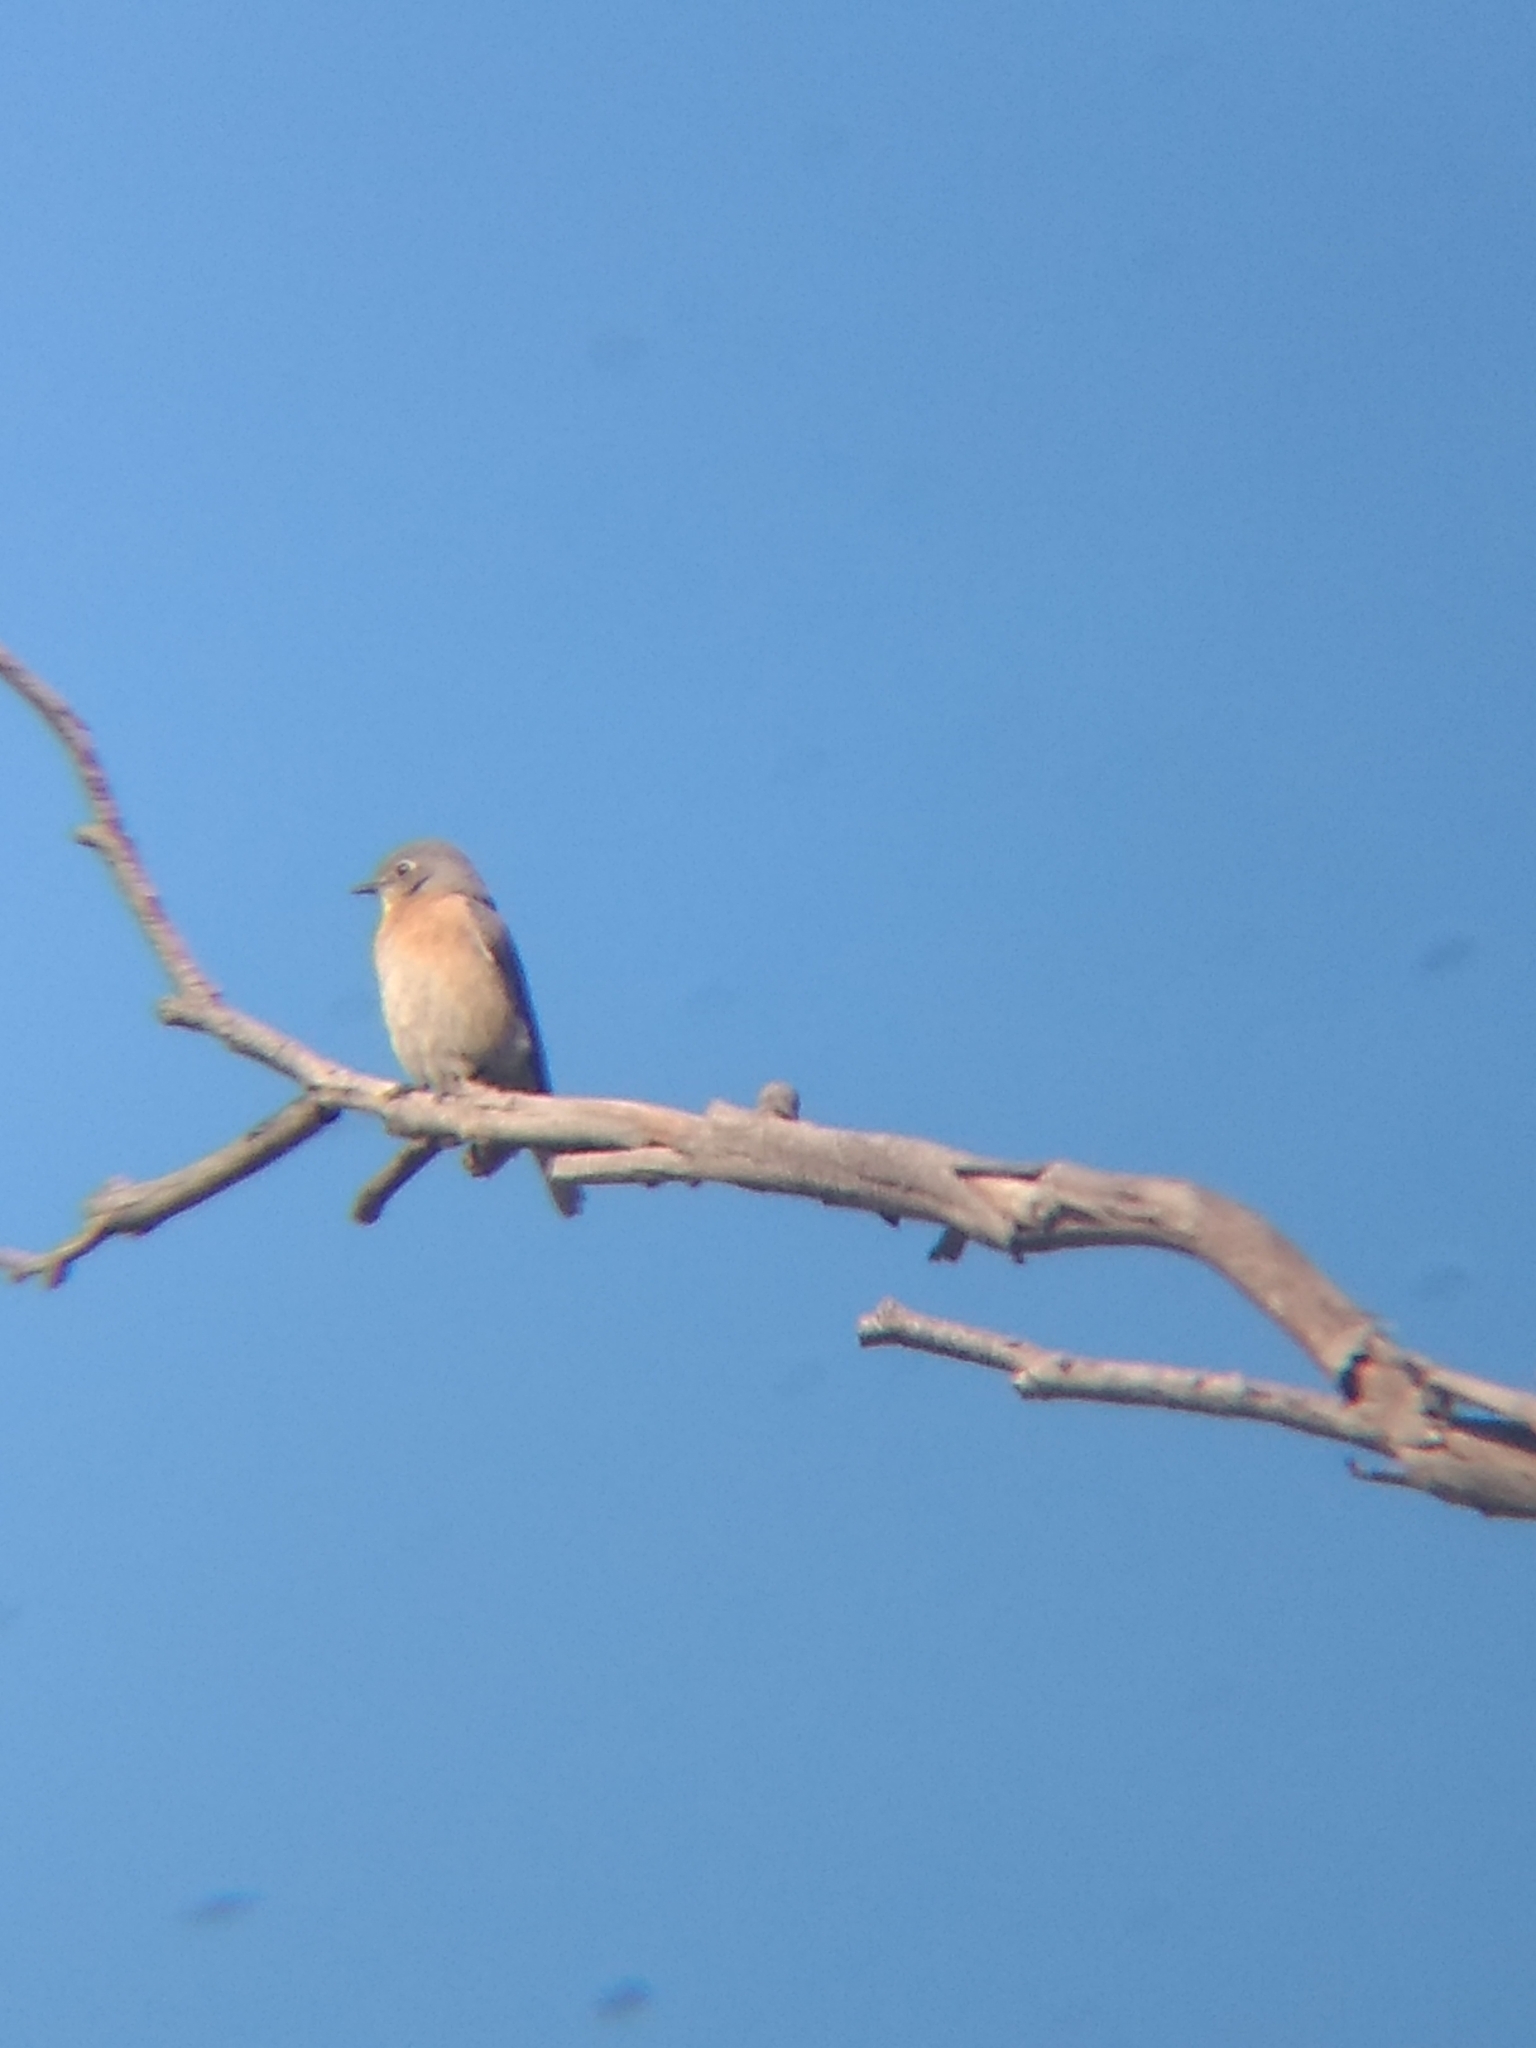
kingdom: Animalia
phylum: Chordata
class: Aves
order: Passeriformes
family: Turdidae
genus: Sialia
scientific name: Sialia mexicana
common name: Western bluebird
